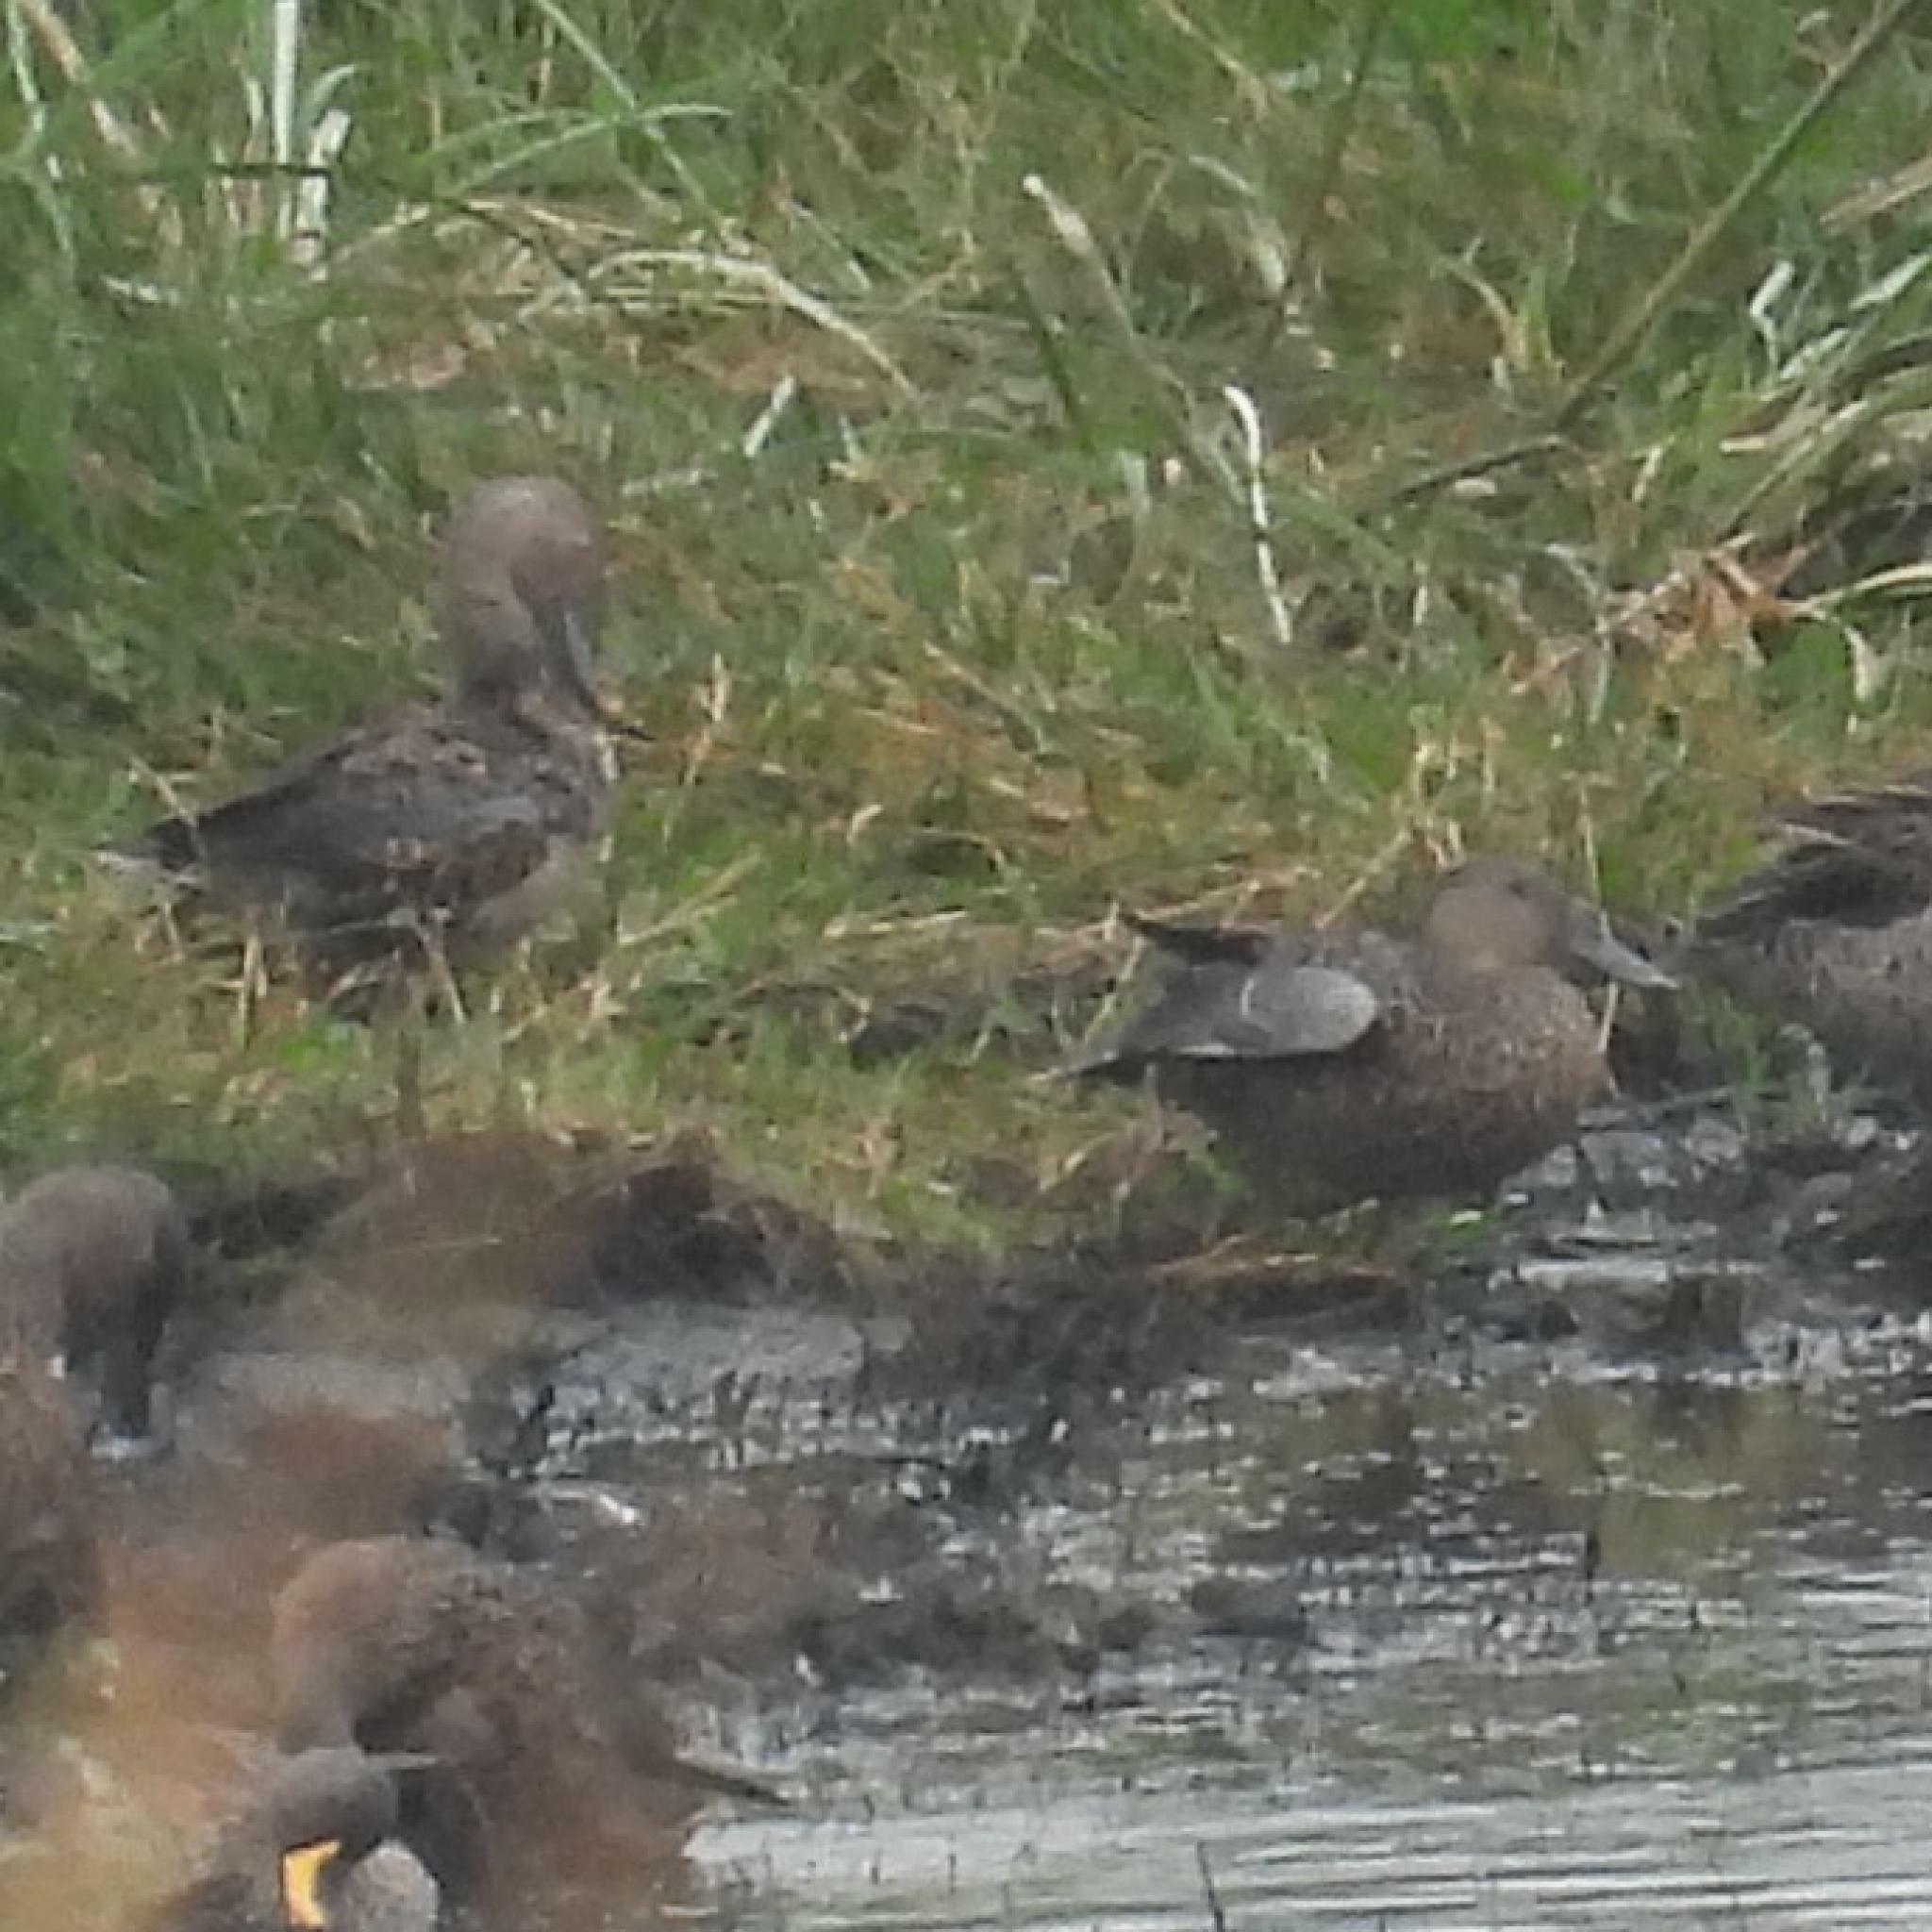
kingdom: Animalia
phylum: Chordata
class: Aves
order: Anseriformes
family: Anatidae
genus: Spatula
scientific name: Spatula smithii
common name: Cape shoveler
